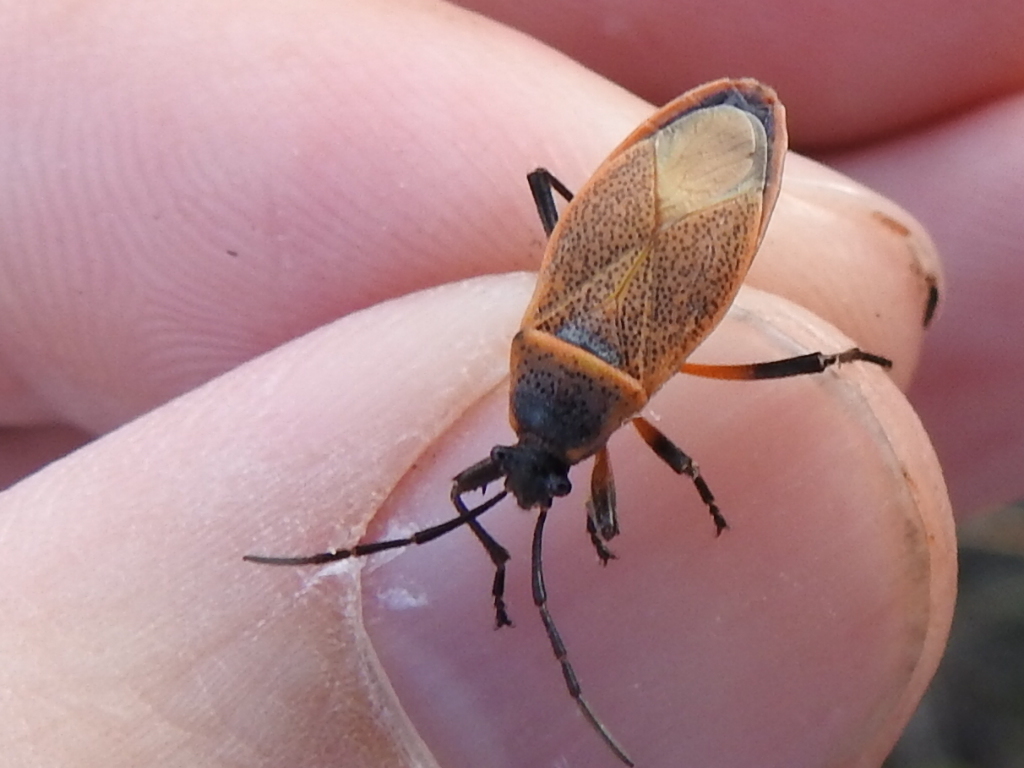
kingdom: Animalia
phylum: Arthropoda
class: Insecta
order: Hemiptera
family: Largidae
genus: Largus
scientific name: Largus davisi
